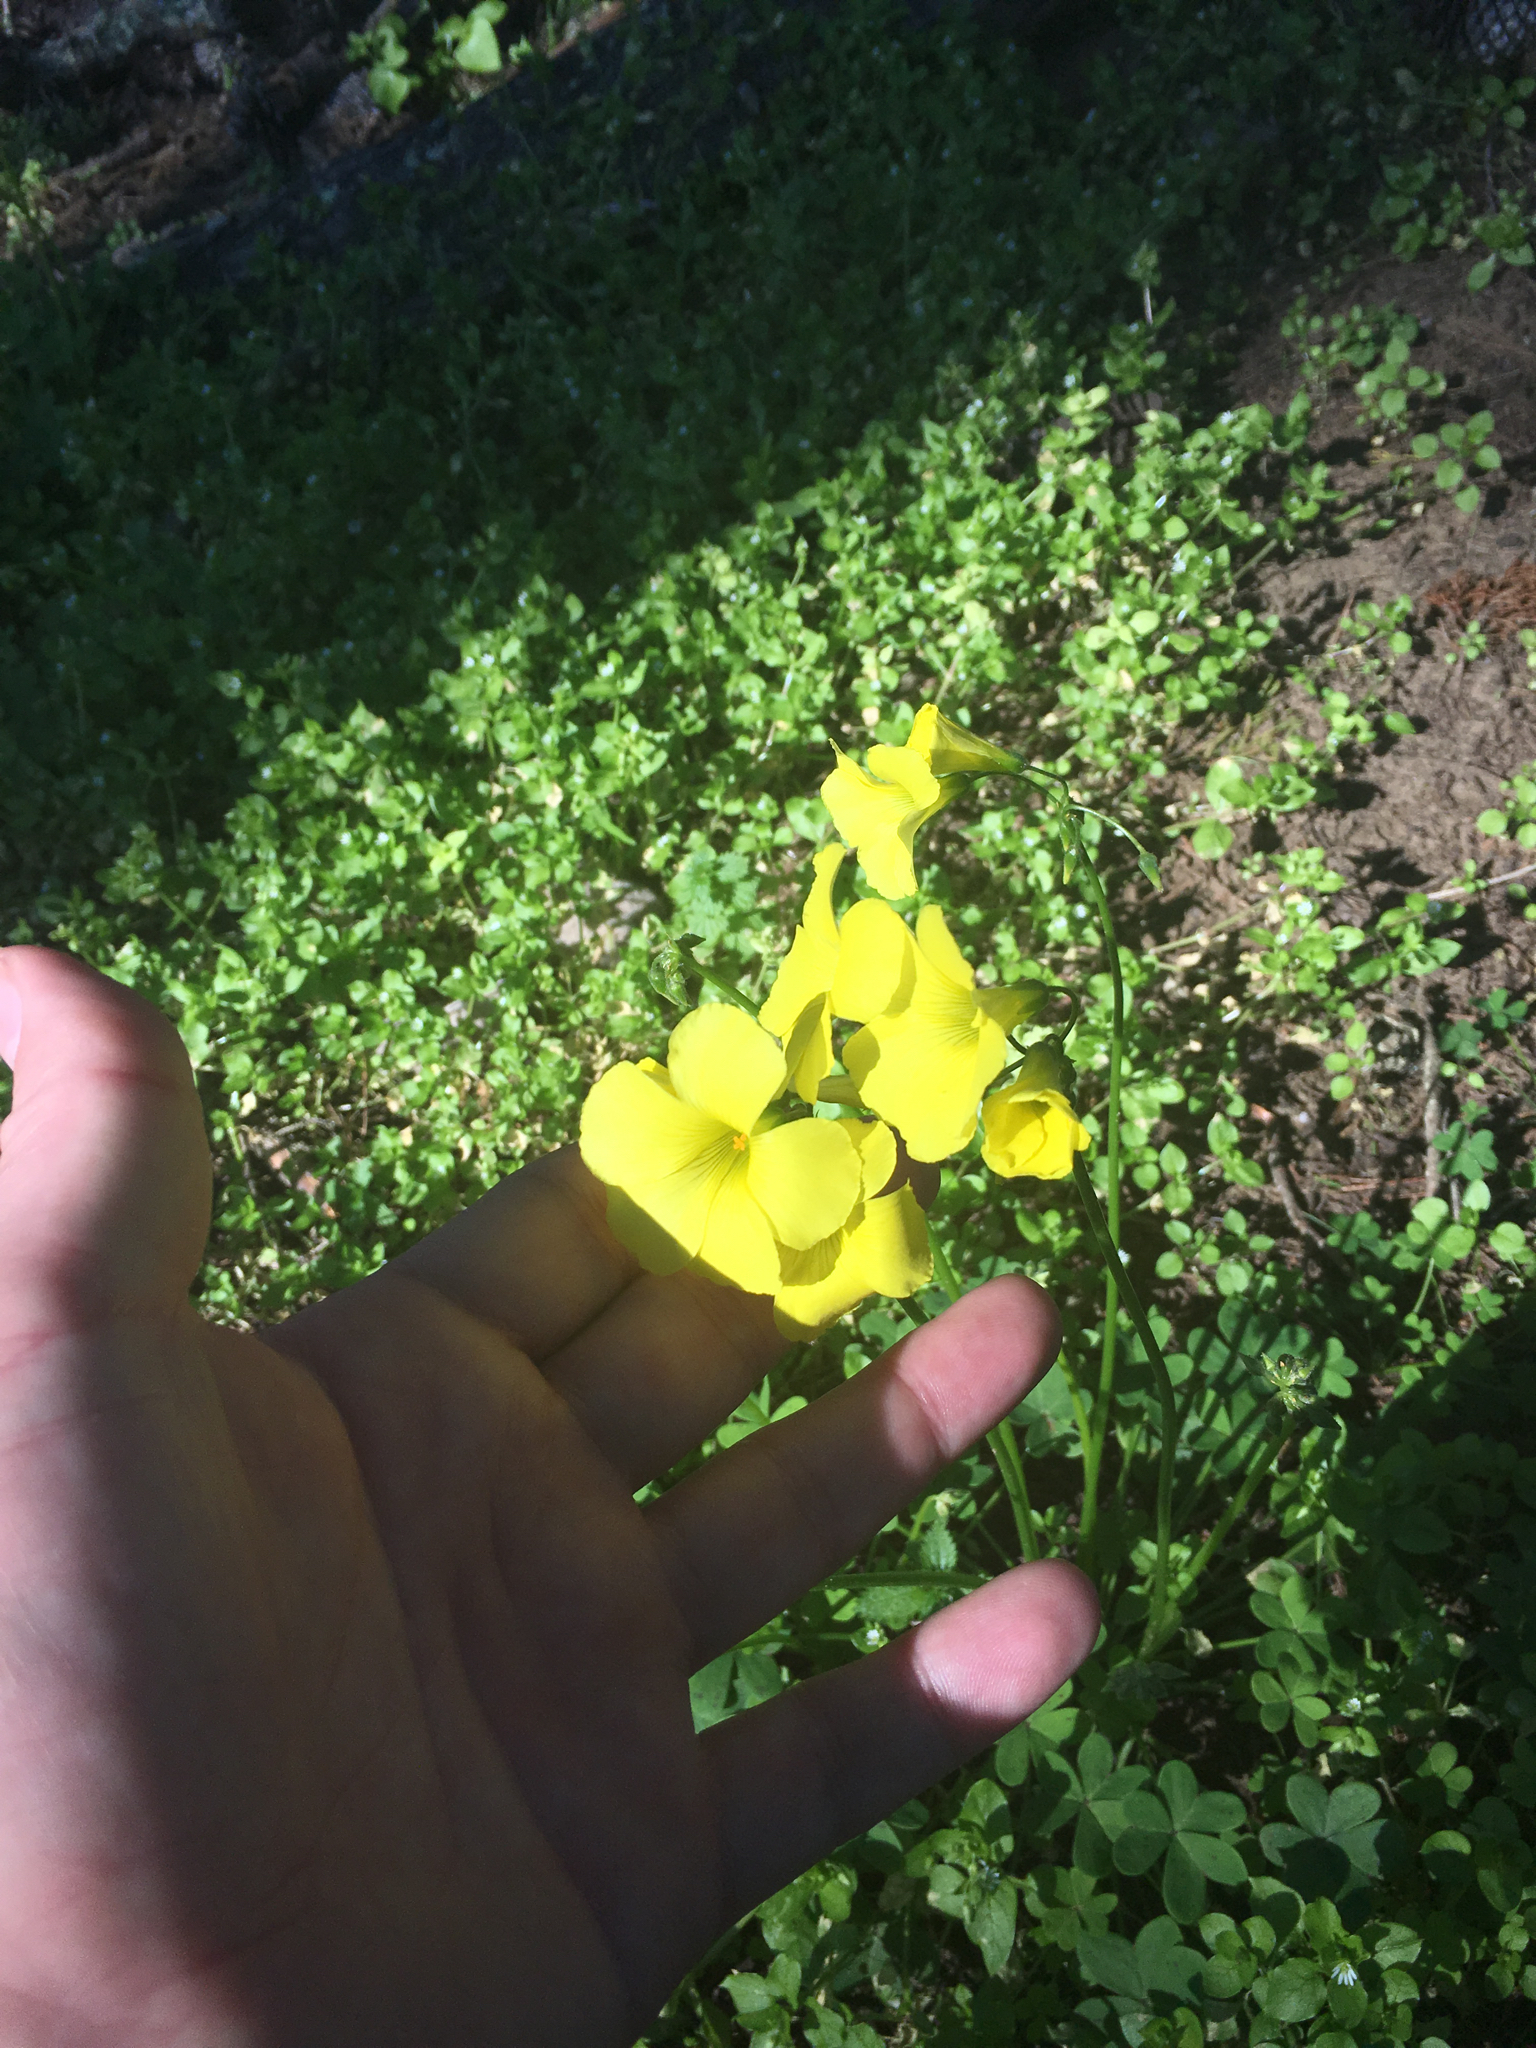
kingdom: Plantae
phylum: Tracheophyta
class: Magnoliopsida
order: Oxalidales
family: Oxalidaceae
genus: Oxalis
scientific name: Oxalis pes-caprae
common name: Bermuda-buttercup
